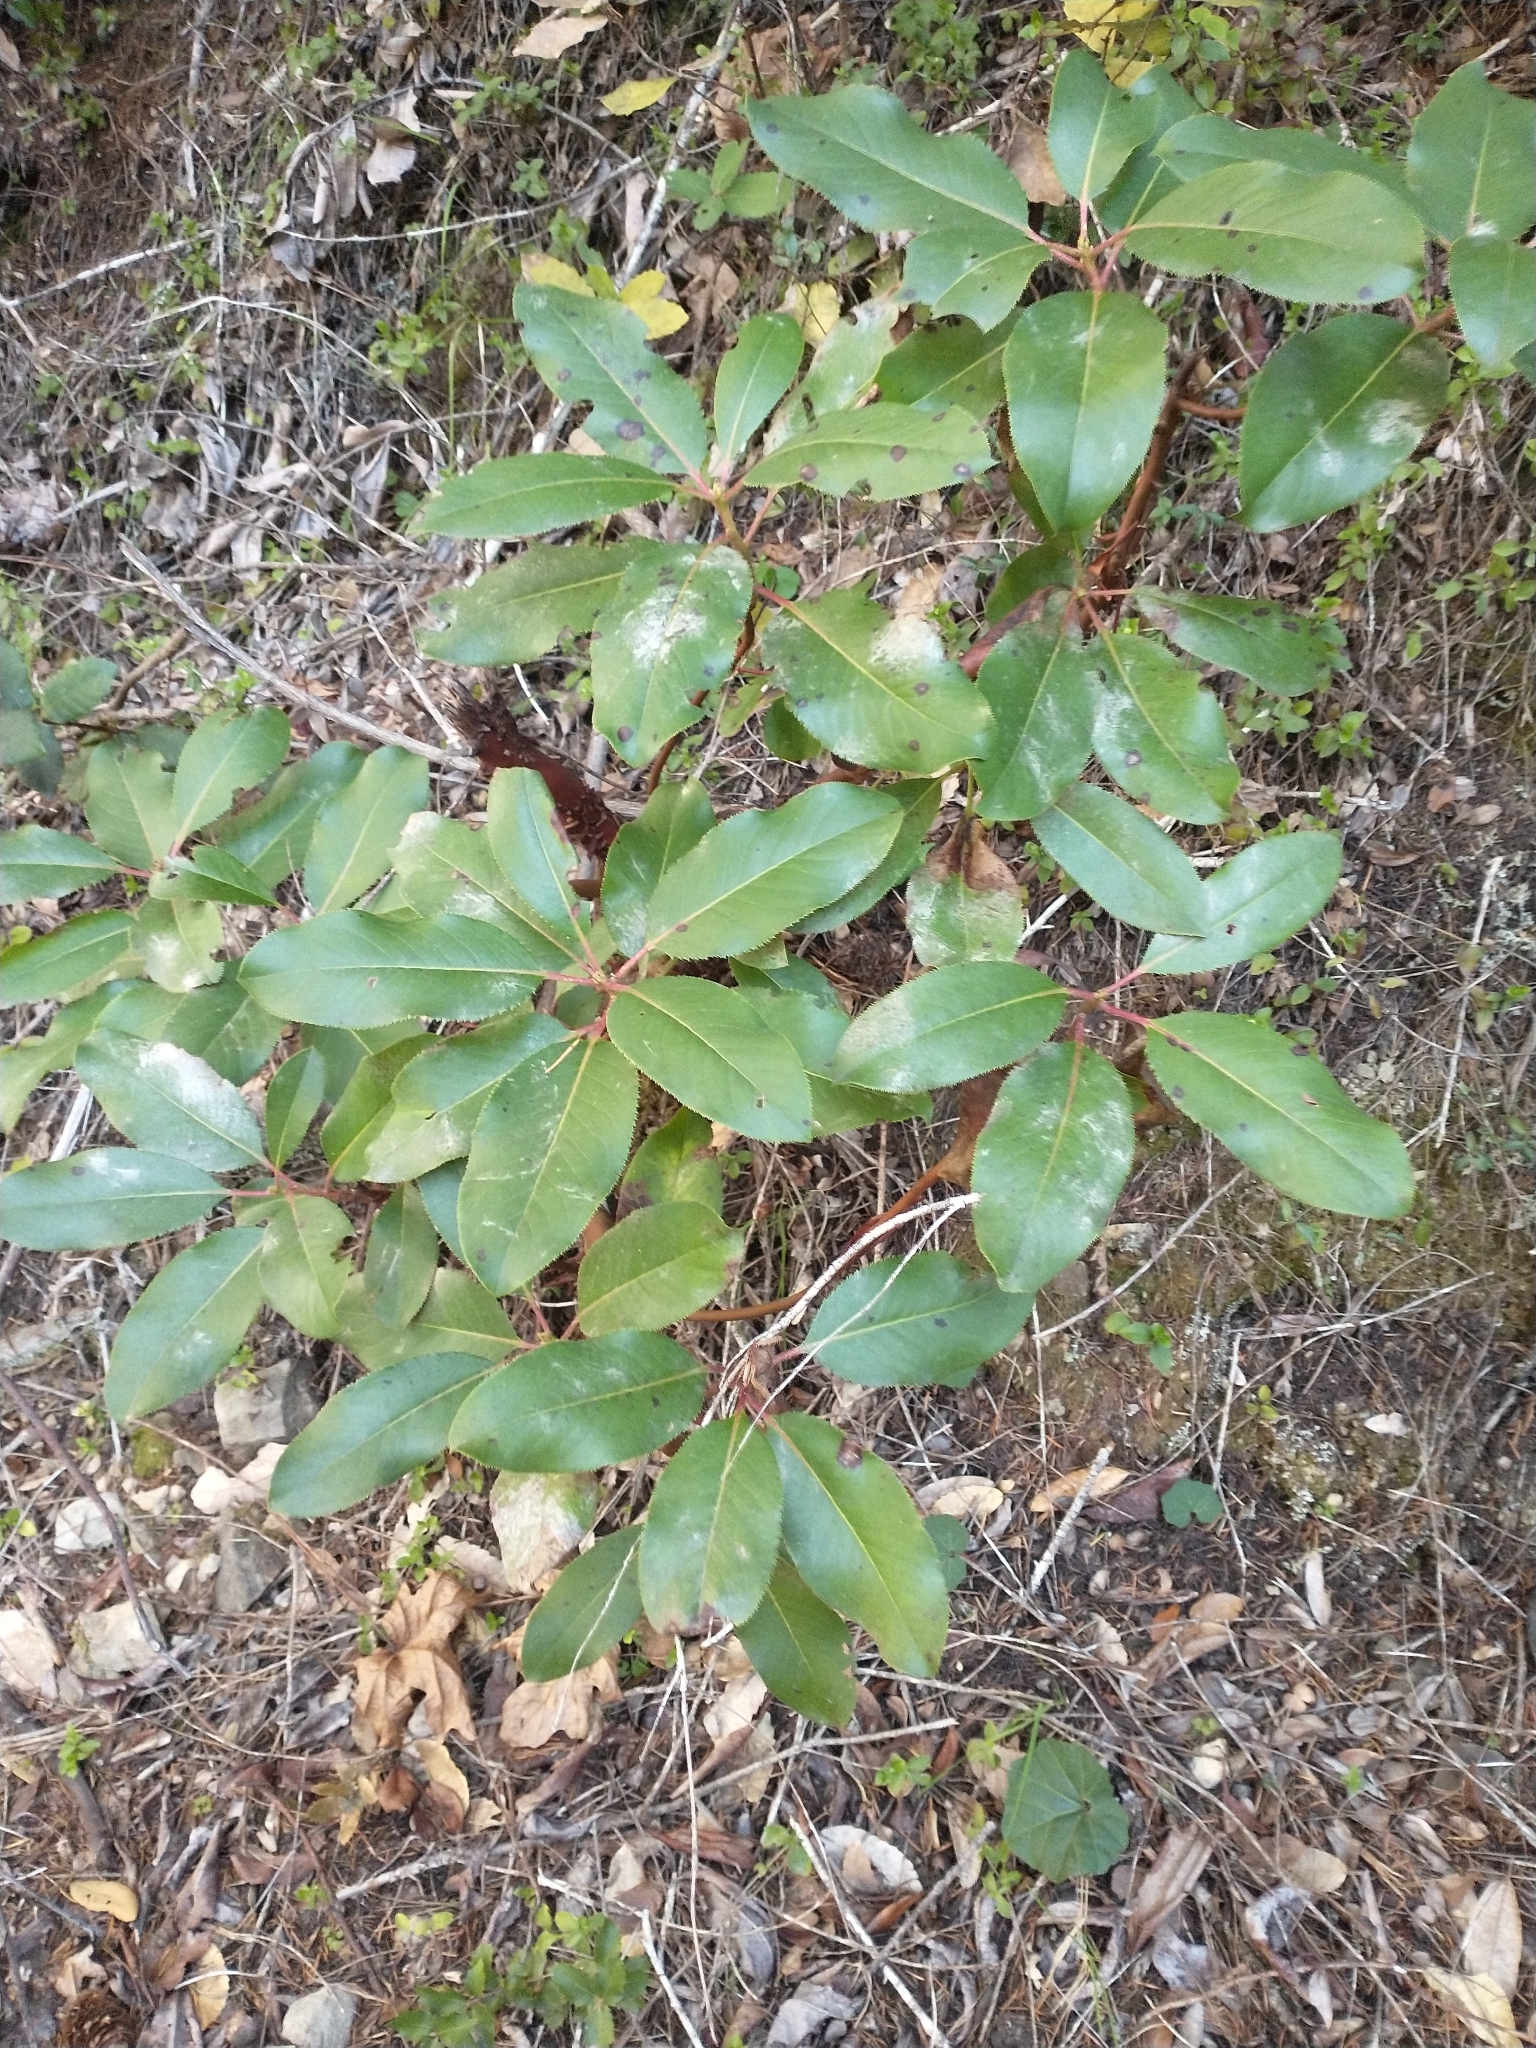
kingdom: Plantae
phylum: Tracheophyta
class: Magnoliopsida
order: Ericales
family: Ericaceae
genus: Arbutus
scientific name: Arbutus menziesii
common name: Pacific madrone
